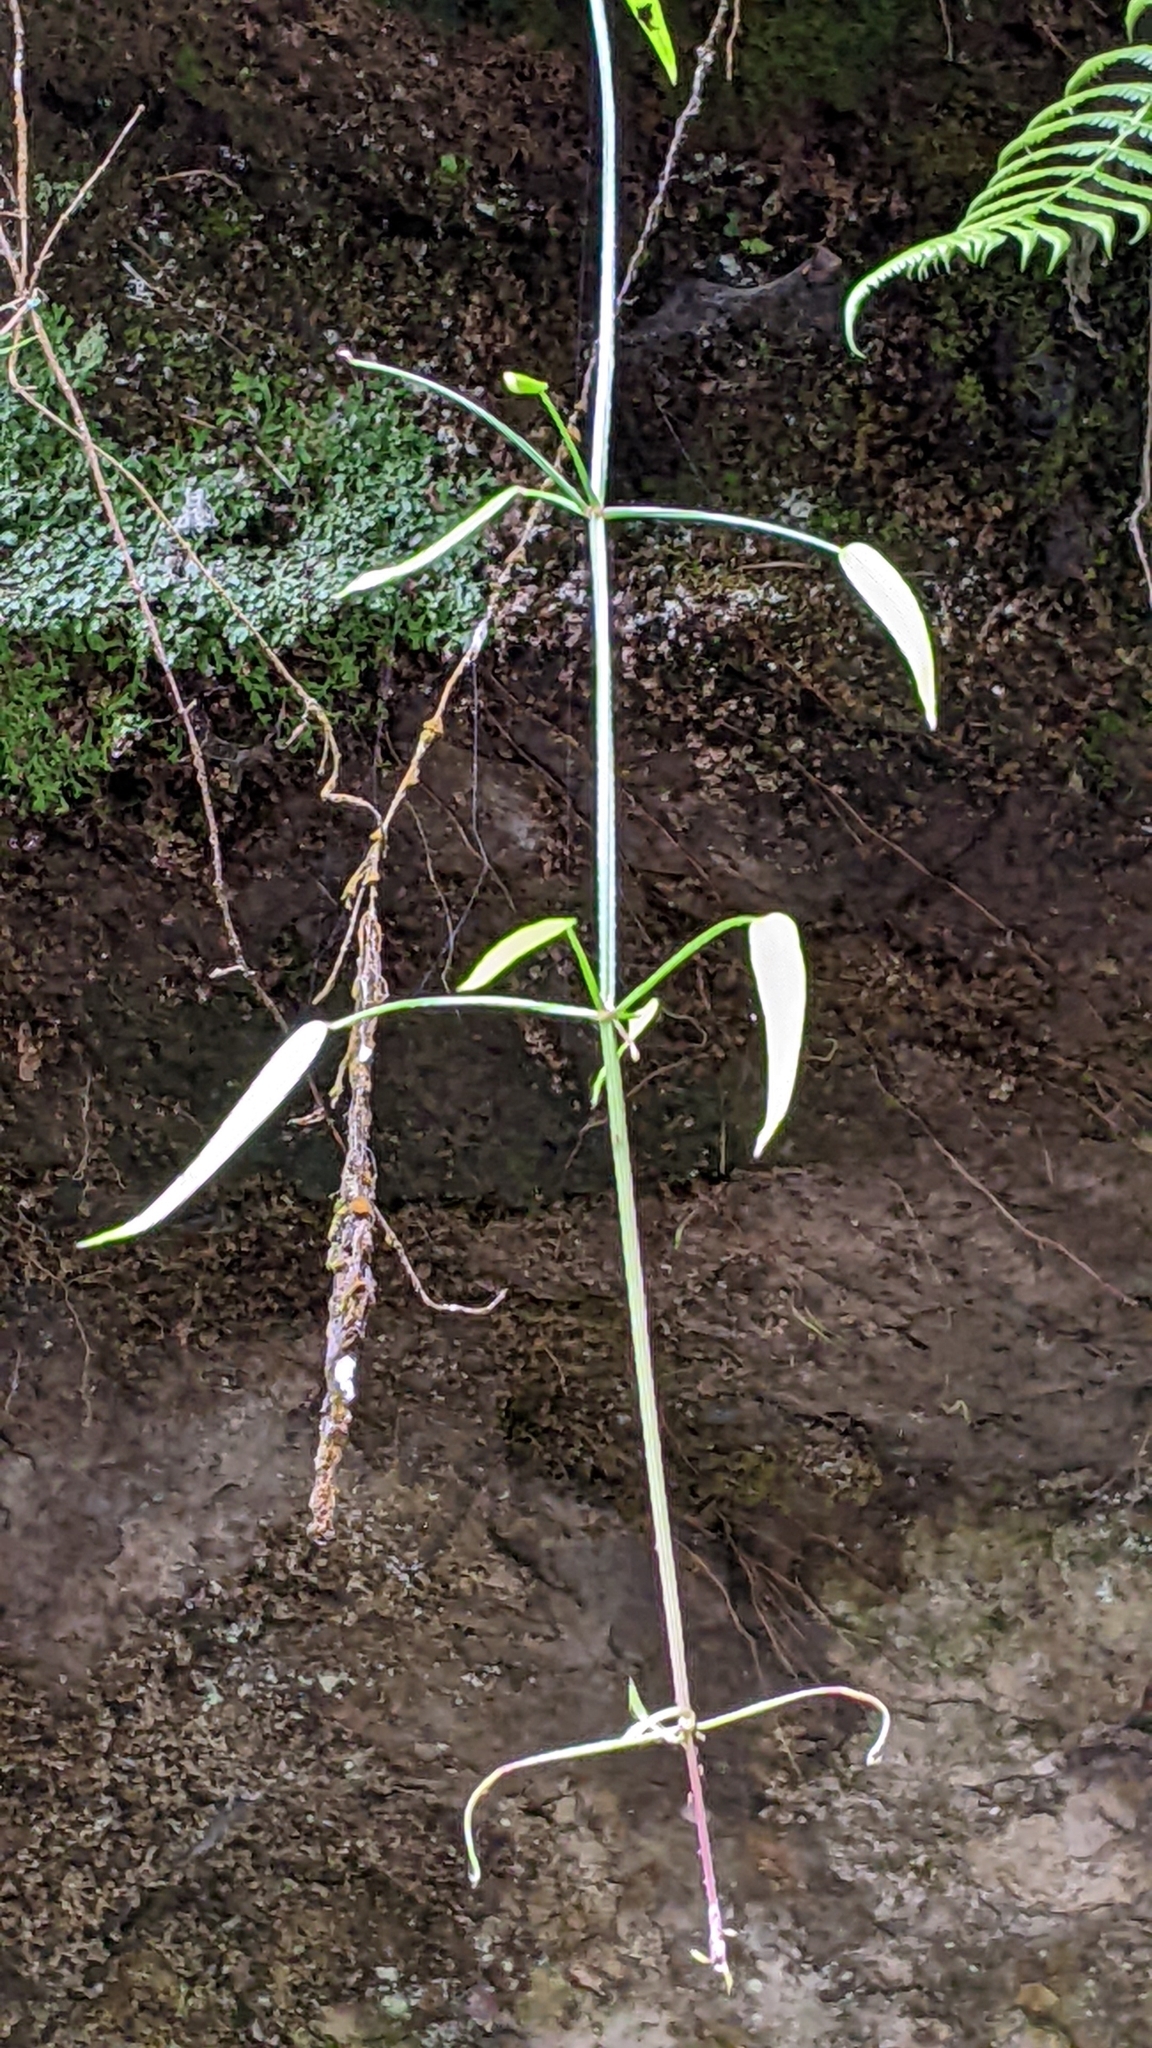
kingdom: Plantae
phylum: Tracheophyta
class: Magnoliopsida
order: Gentianales
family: Rubiaceae
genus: Rubia
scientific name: Rubia alata
